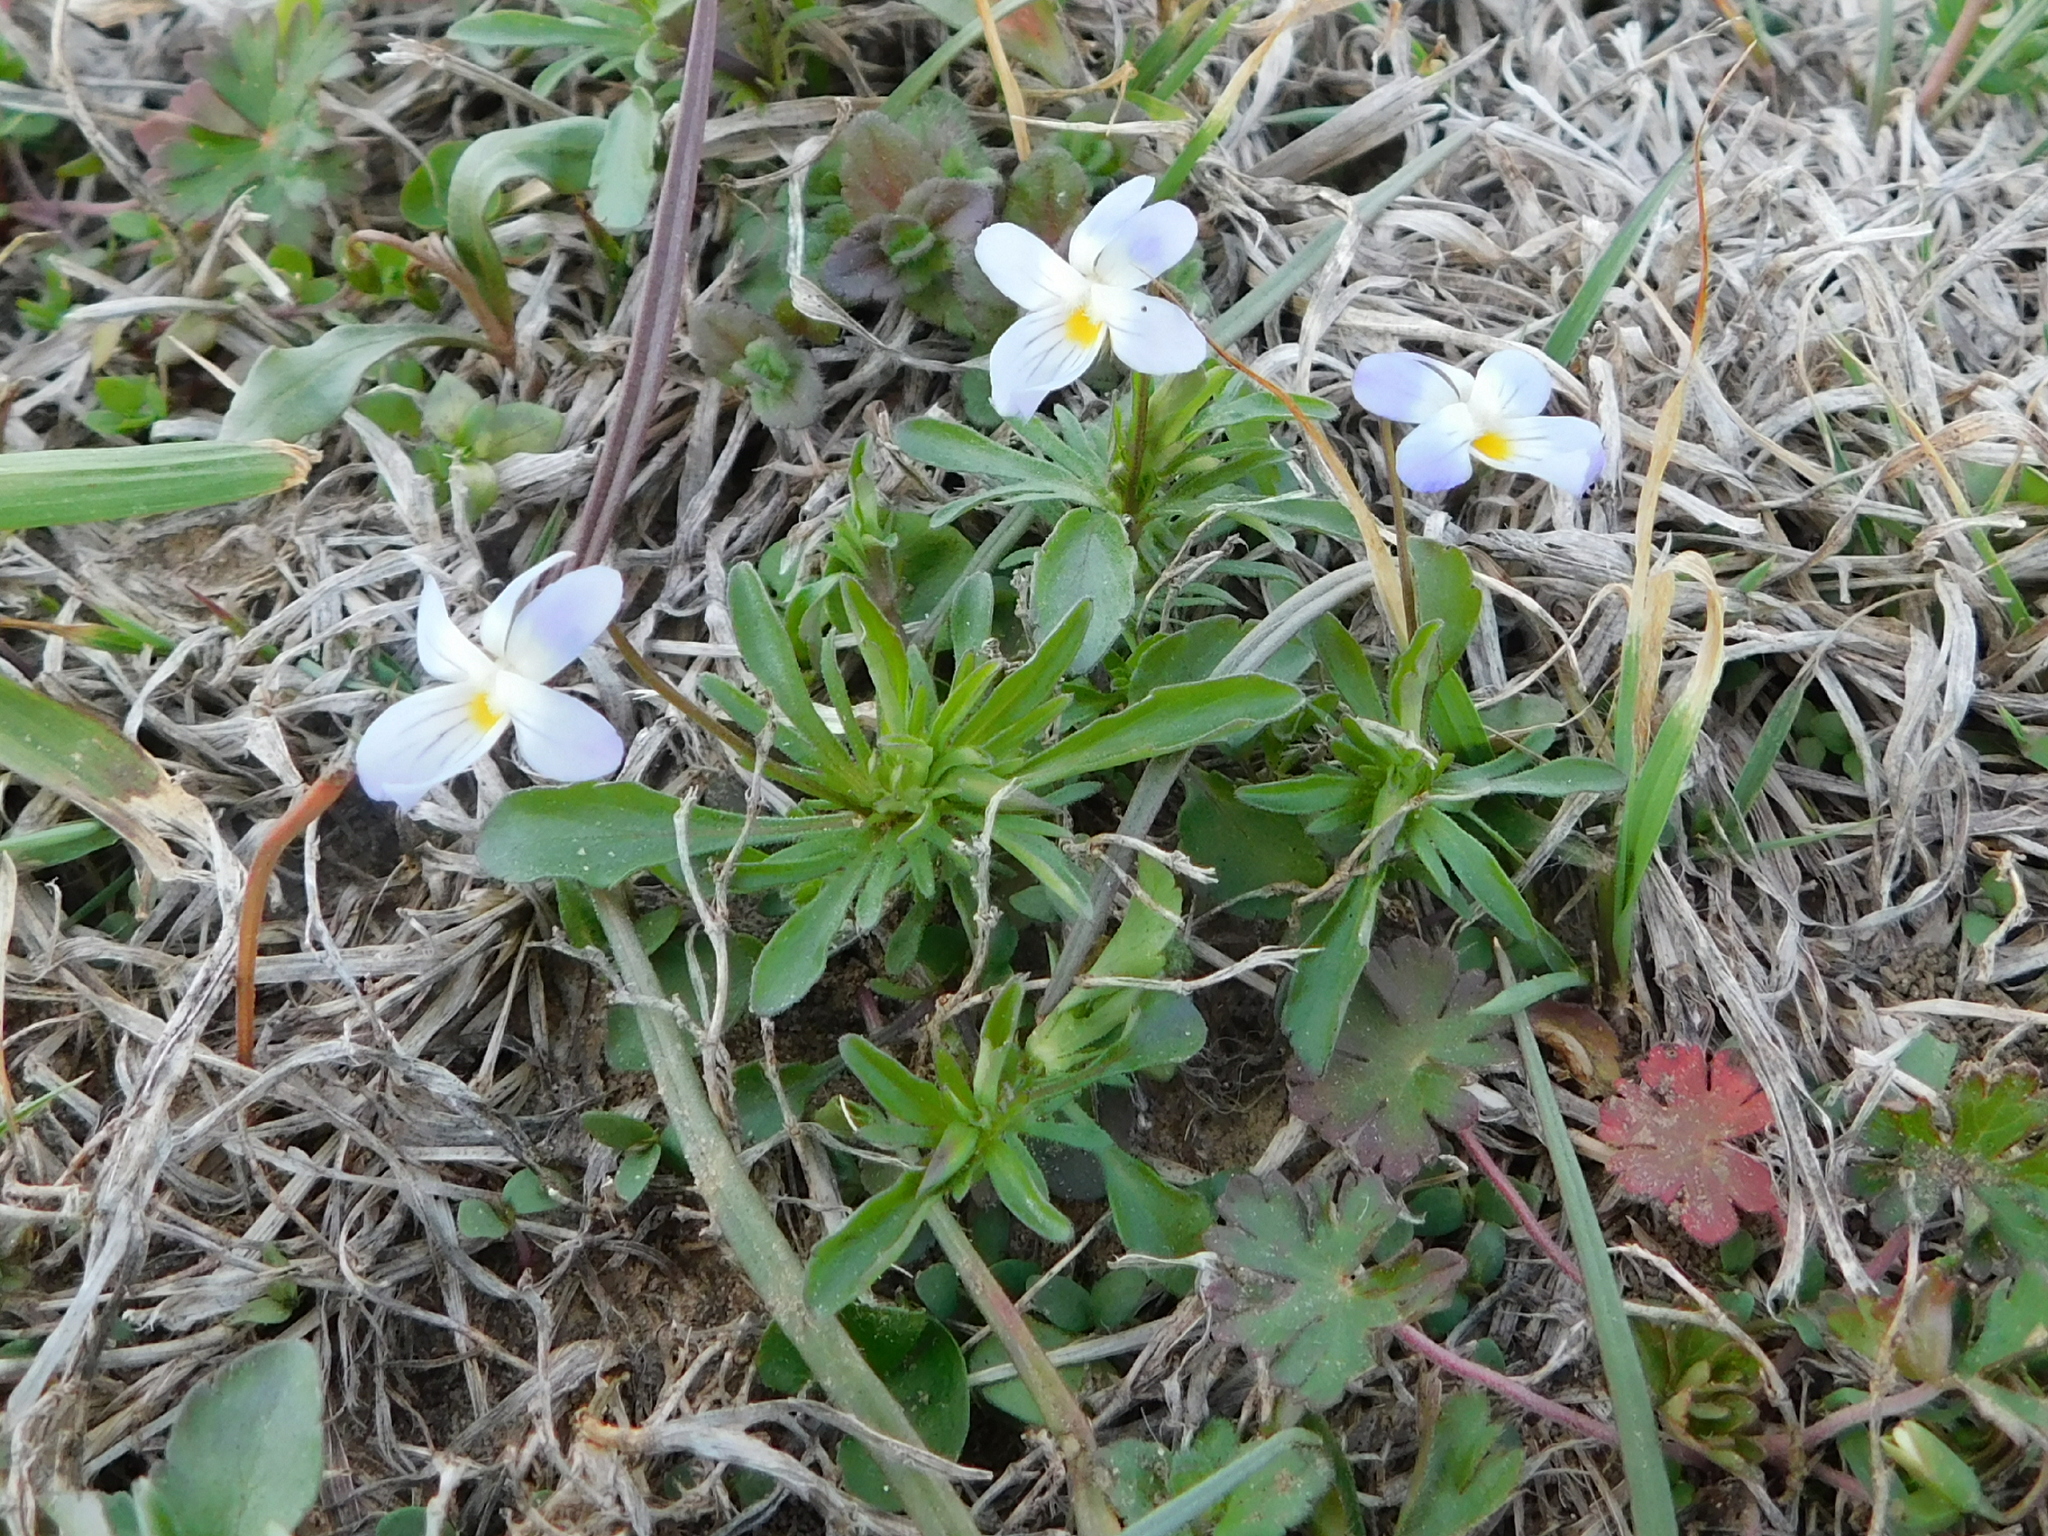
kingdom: Plantae
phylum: Tracheophyta
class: Magnoliopsida
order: Malpighiales
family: Violaceae
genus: Viola
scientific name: Viola rafinesquei
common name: American field pansy
